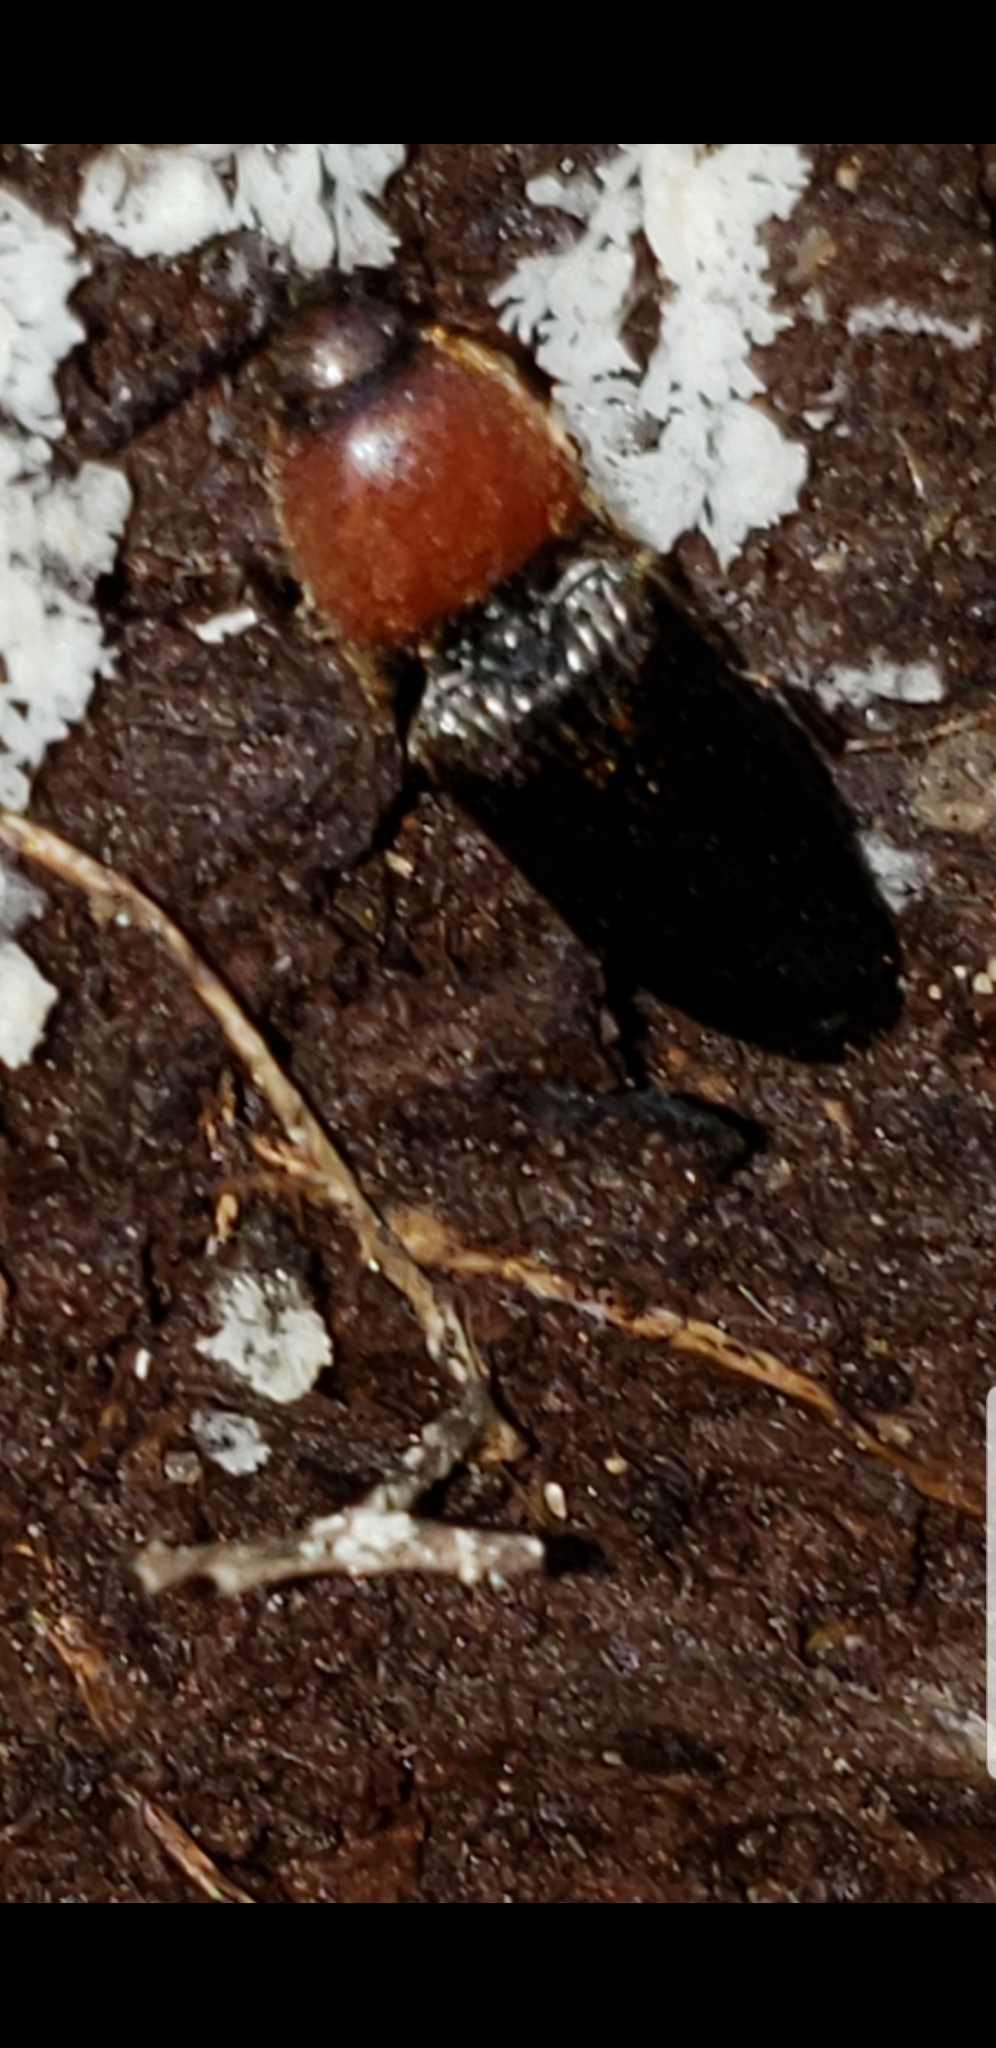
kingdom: Animalia
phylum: Arthropoda
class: Insecta
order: Coleoptera
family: Elateridae
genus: Ampedus
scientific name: Ampedus rubricollis
